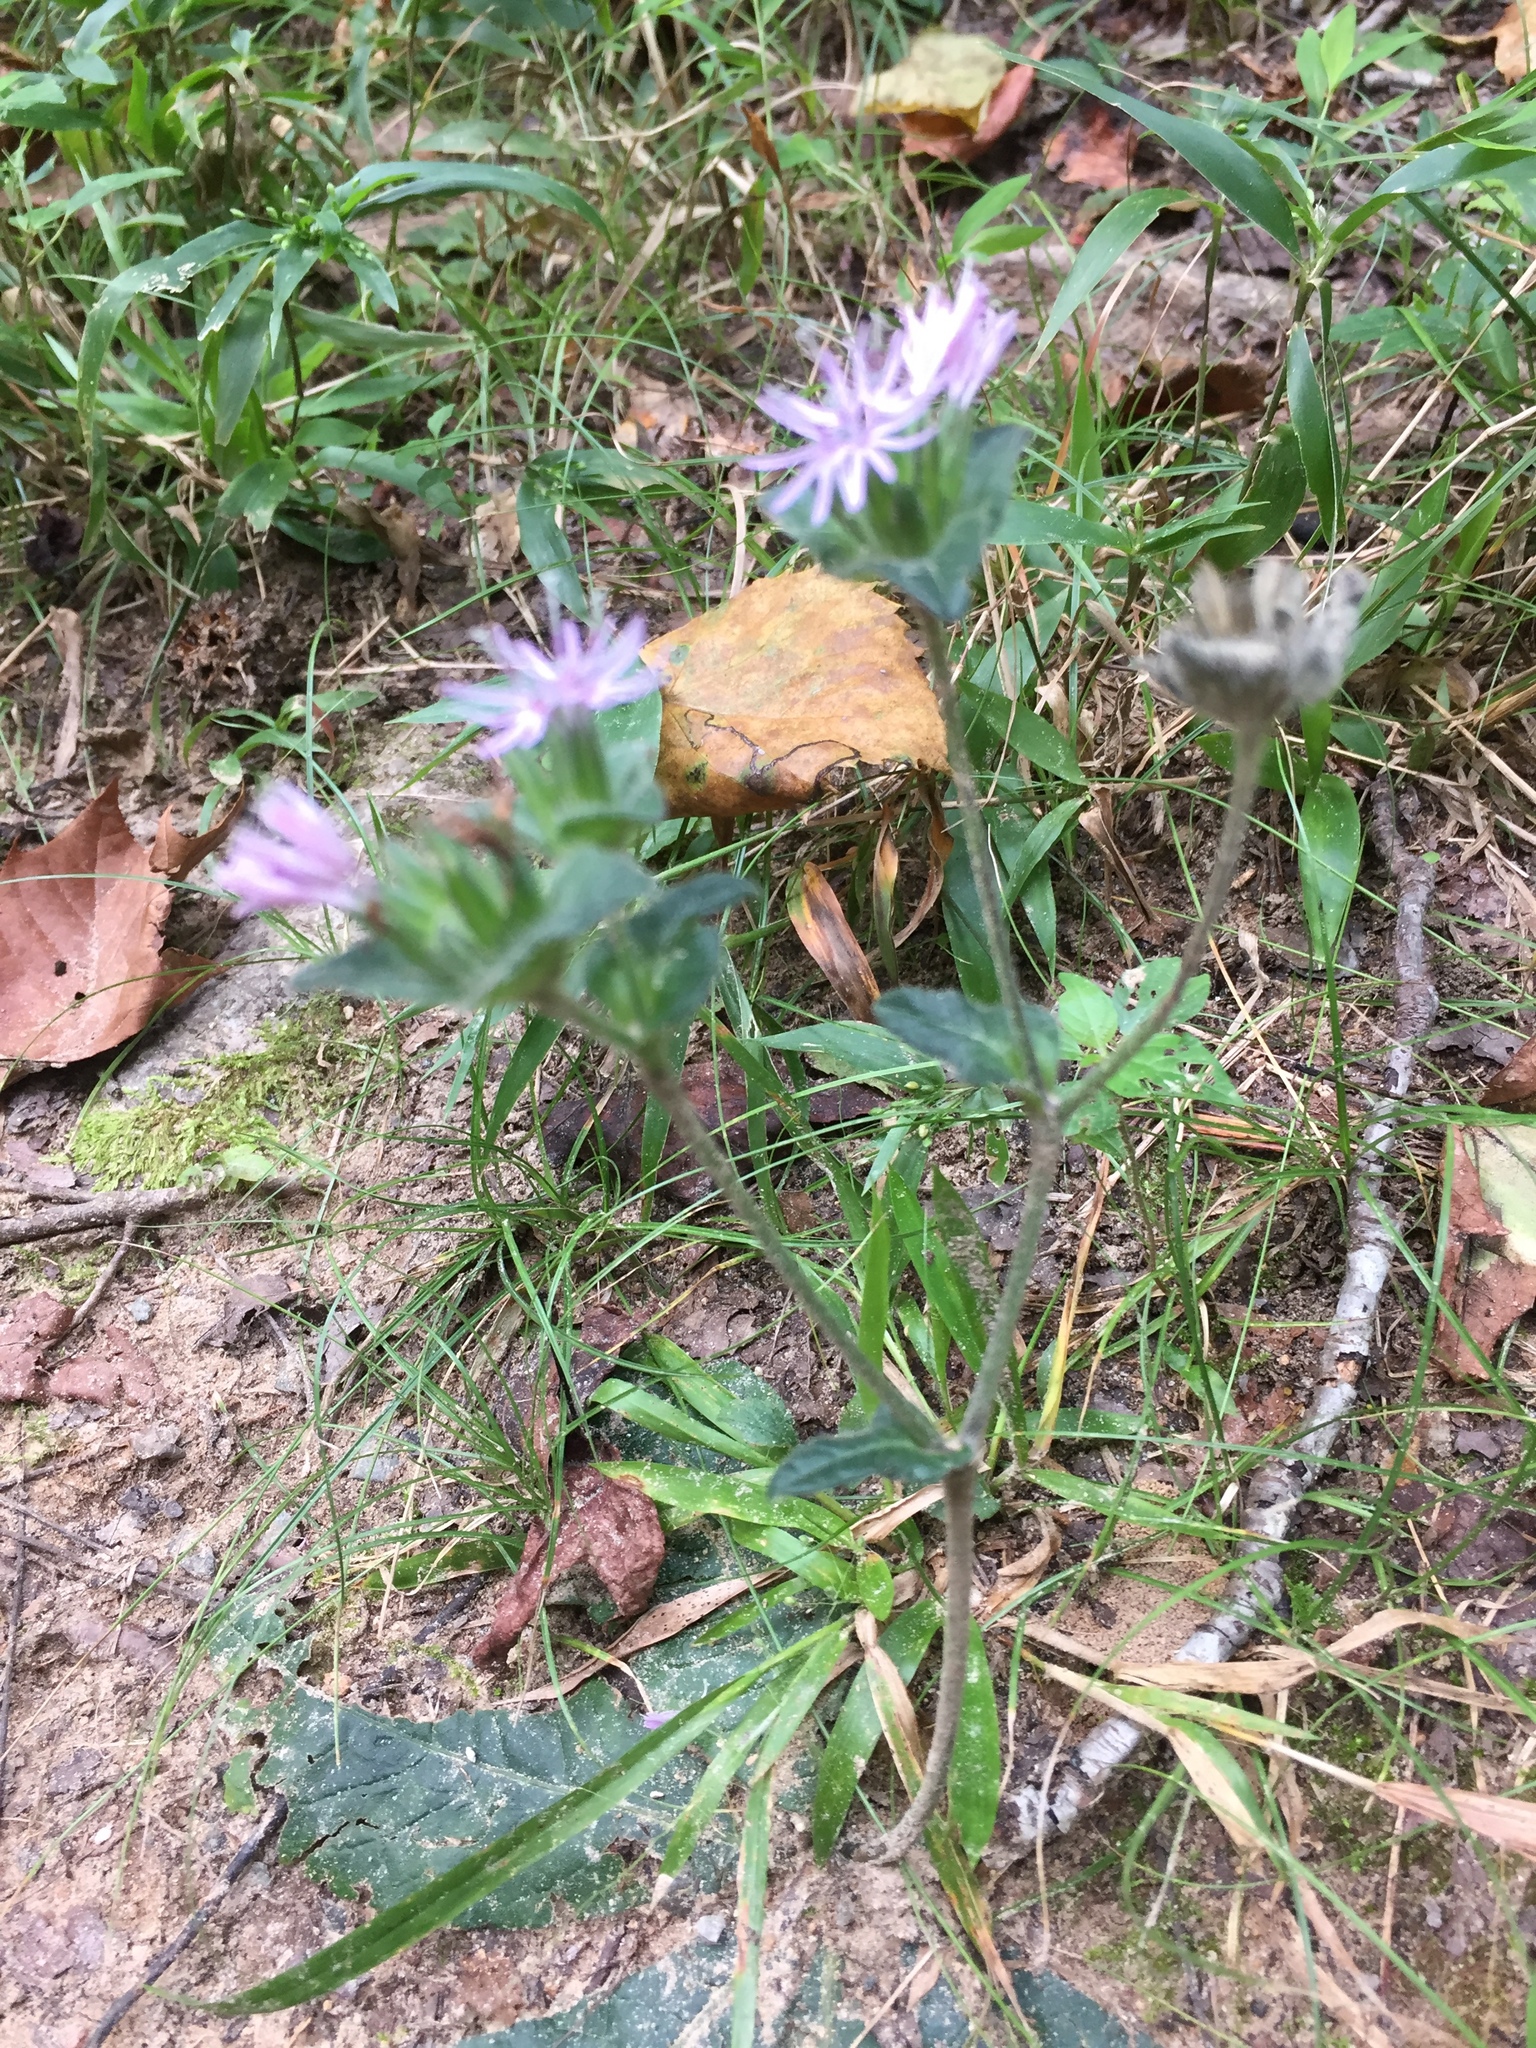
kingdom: Plantae
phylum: Tracheophyta
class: Magnoliopsida
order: Asterales
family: Asteraceae
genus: Elephantopus
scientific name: Elephantopus tomentosus
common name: Tobacco-weed
